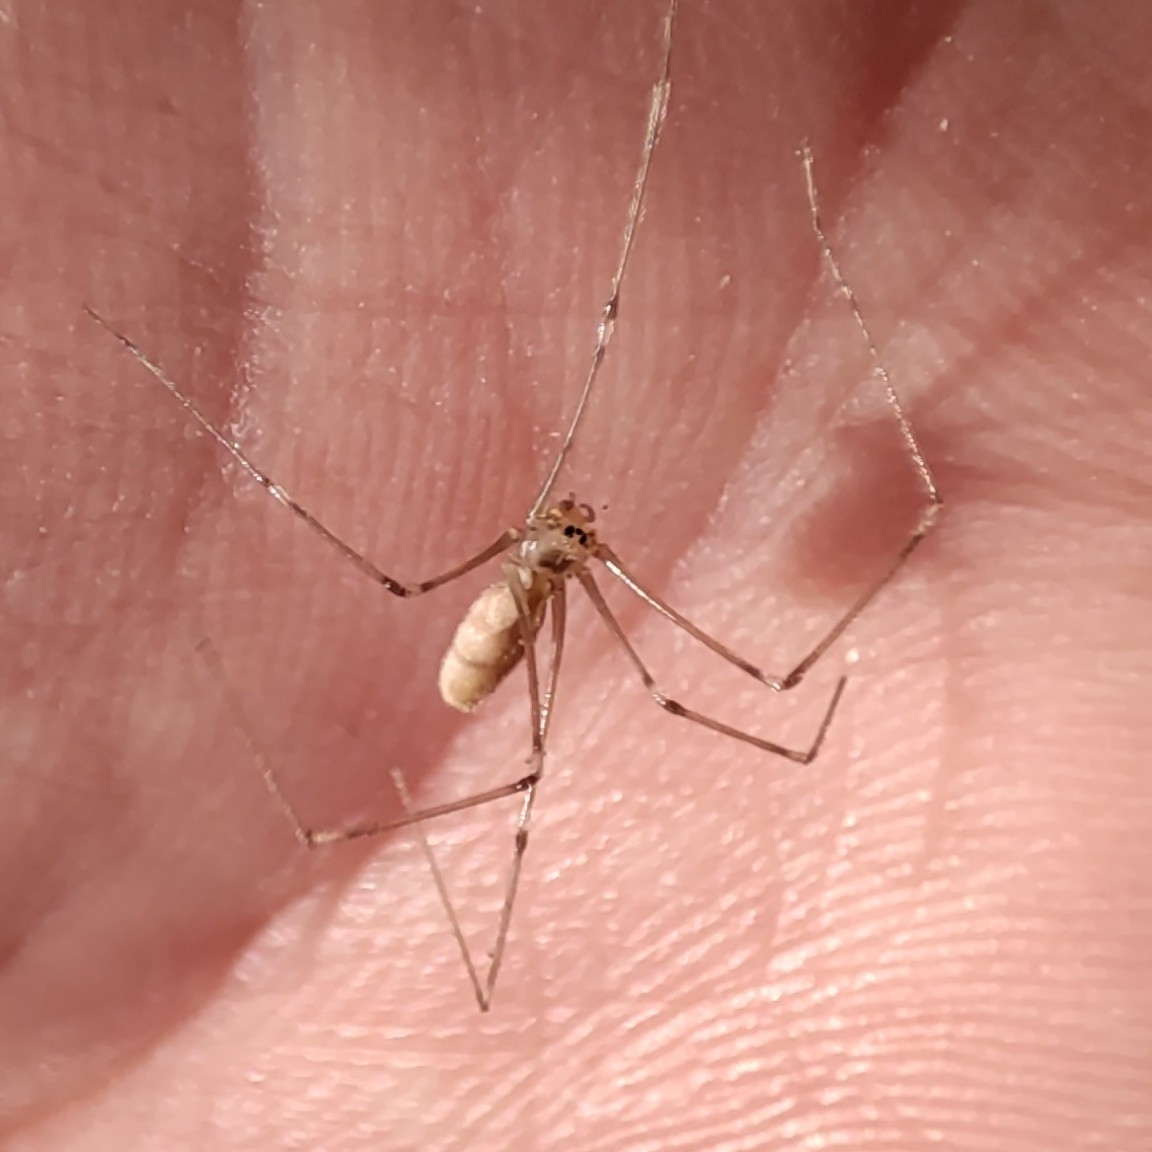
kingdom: Animalia
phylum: Arthropoda
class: Arachnida
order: Araneae
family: Pholcidae
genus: Pholcus
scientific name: Pholcus phalangioides
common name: Longbodied cellar spider
